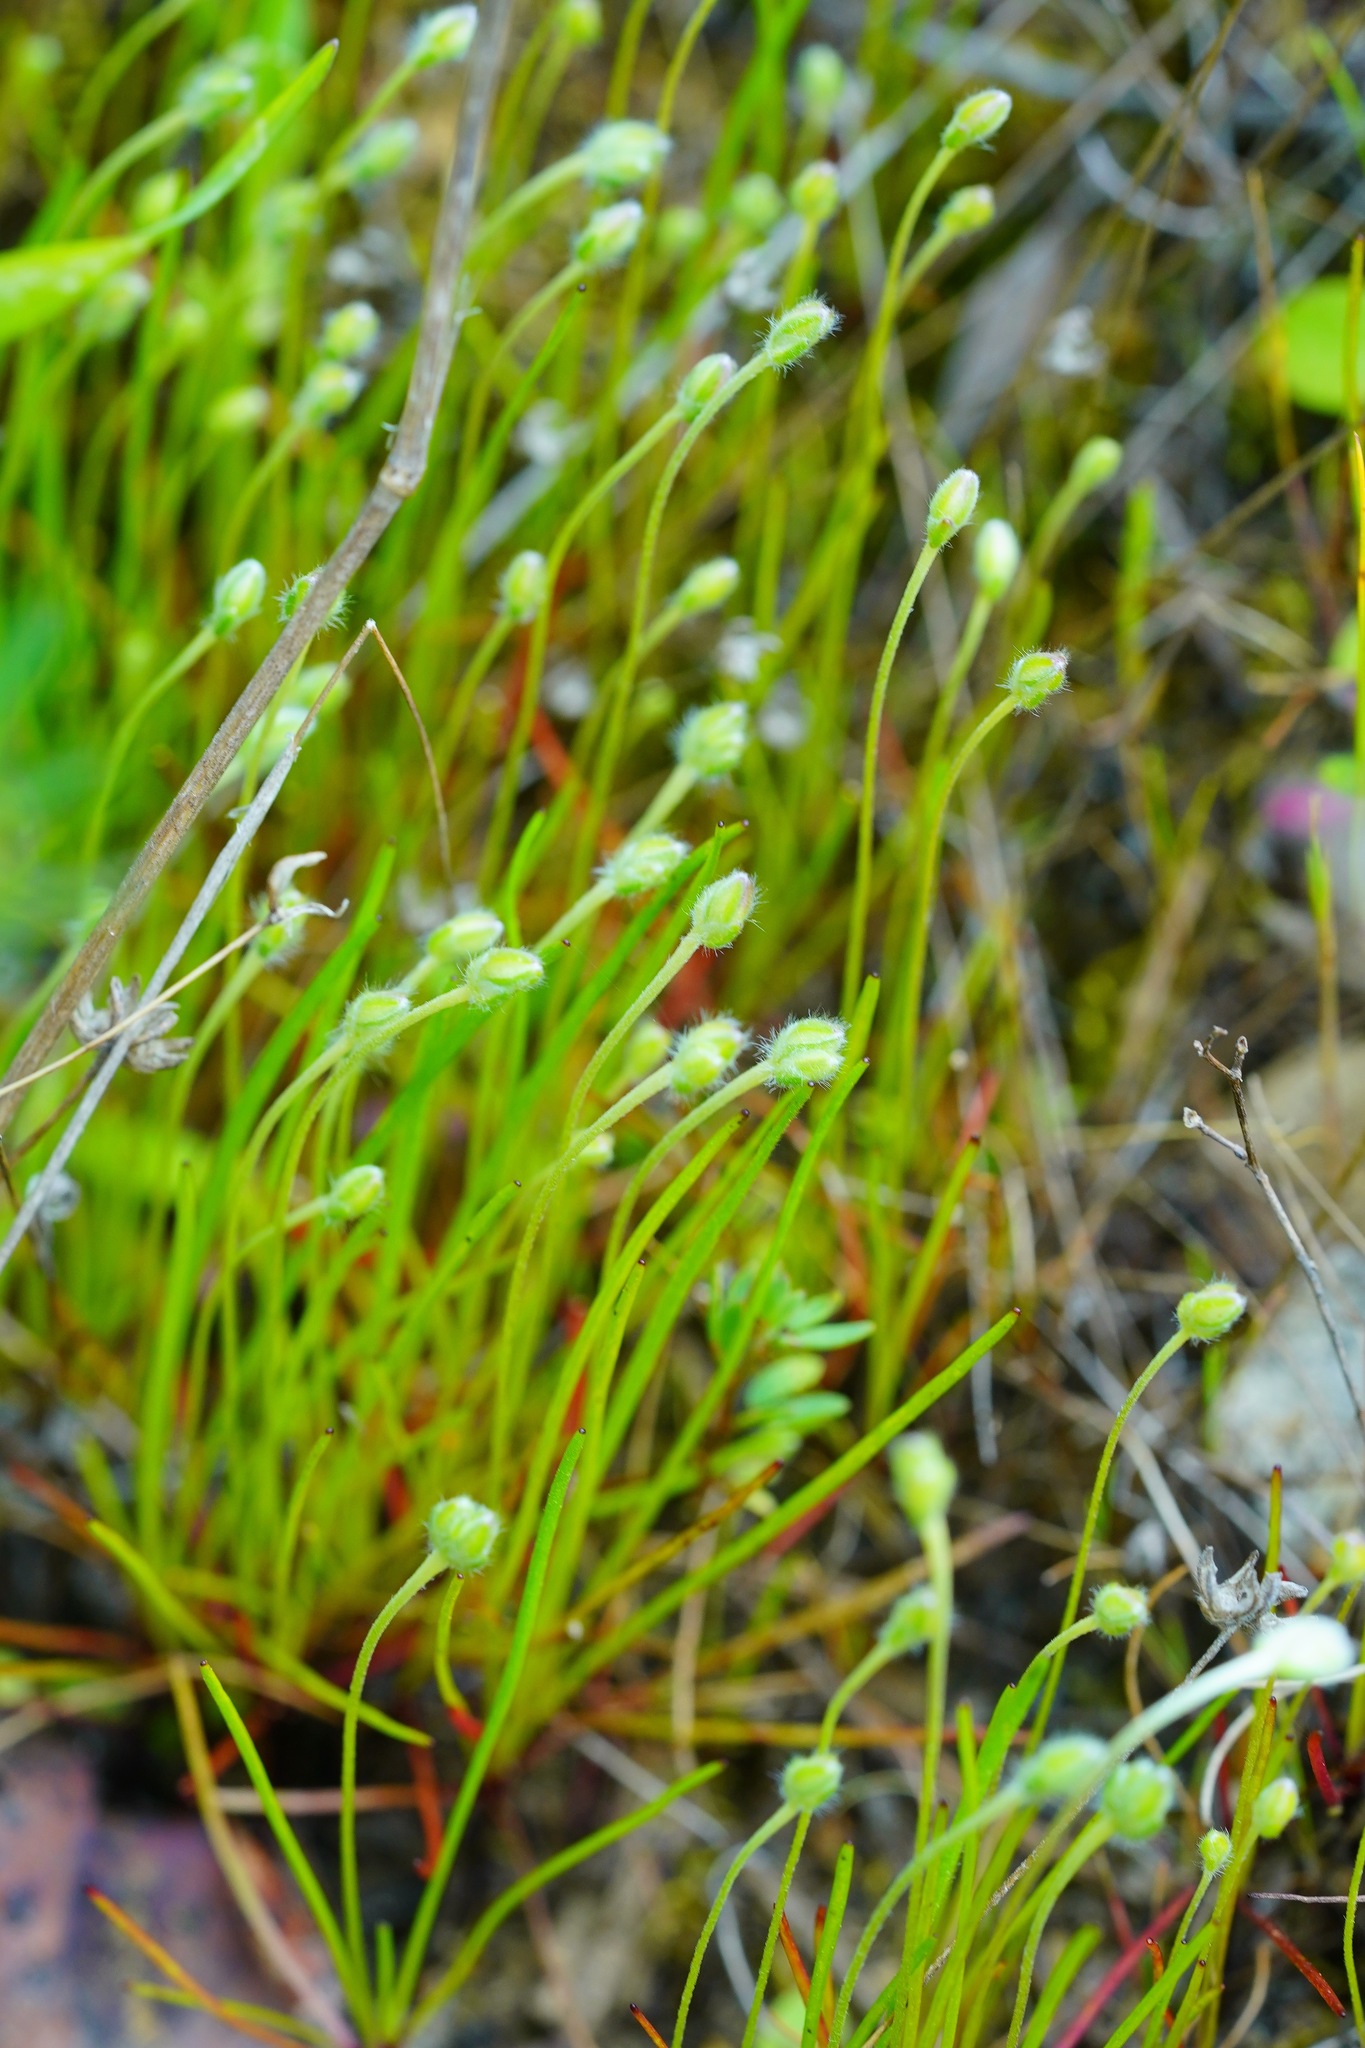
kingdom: Plantae
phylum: Tracheophyta
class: Magnoliopsida
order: Lamiales
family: Plantaginaceae
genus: Plantago
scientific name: Plantago erecta
